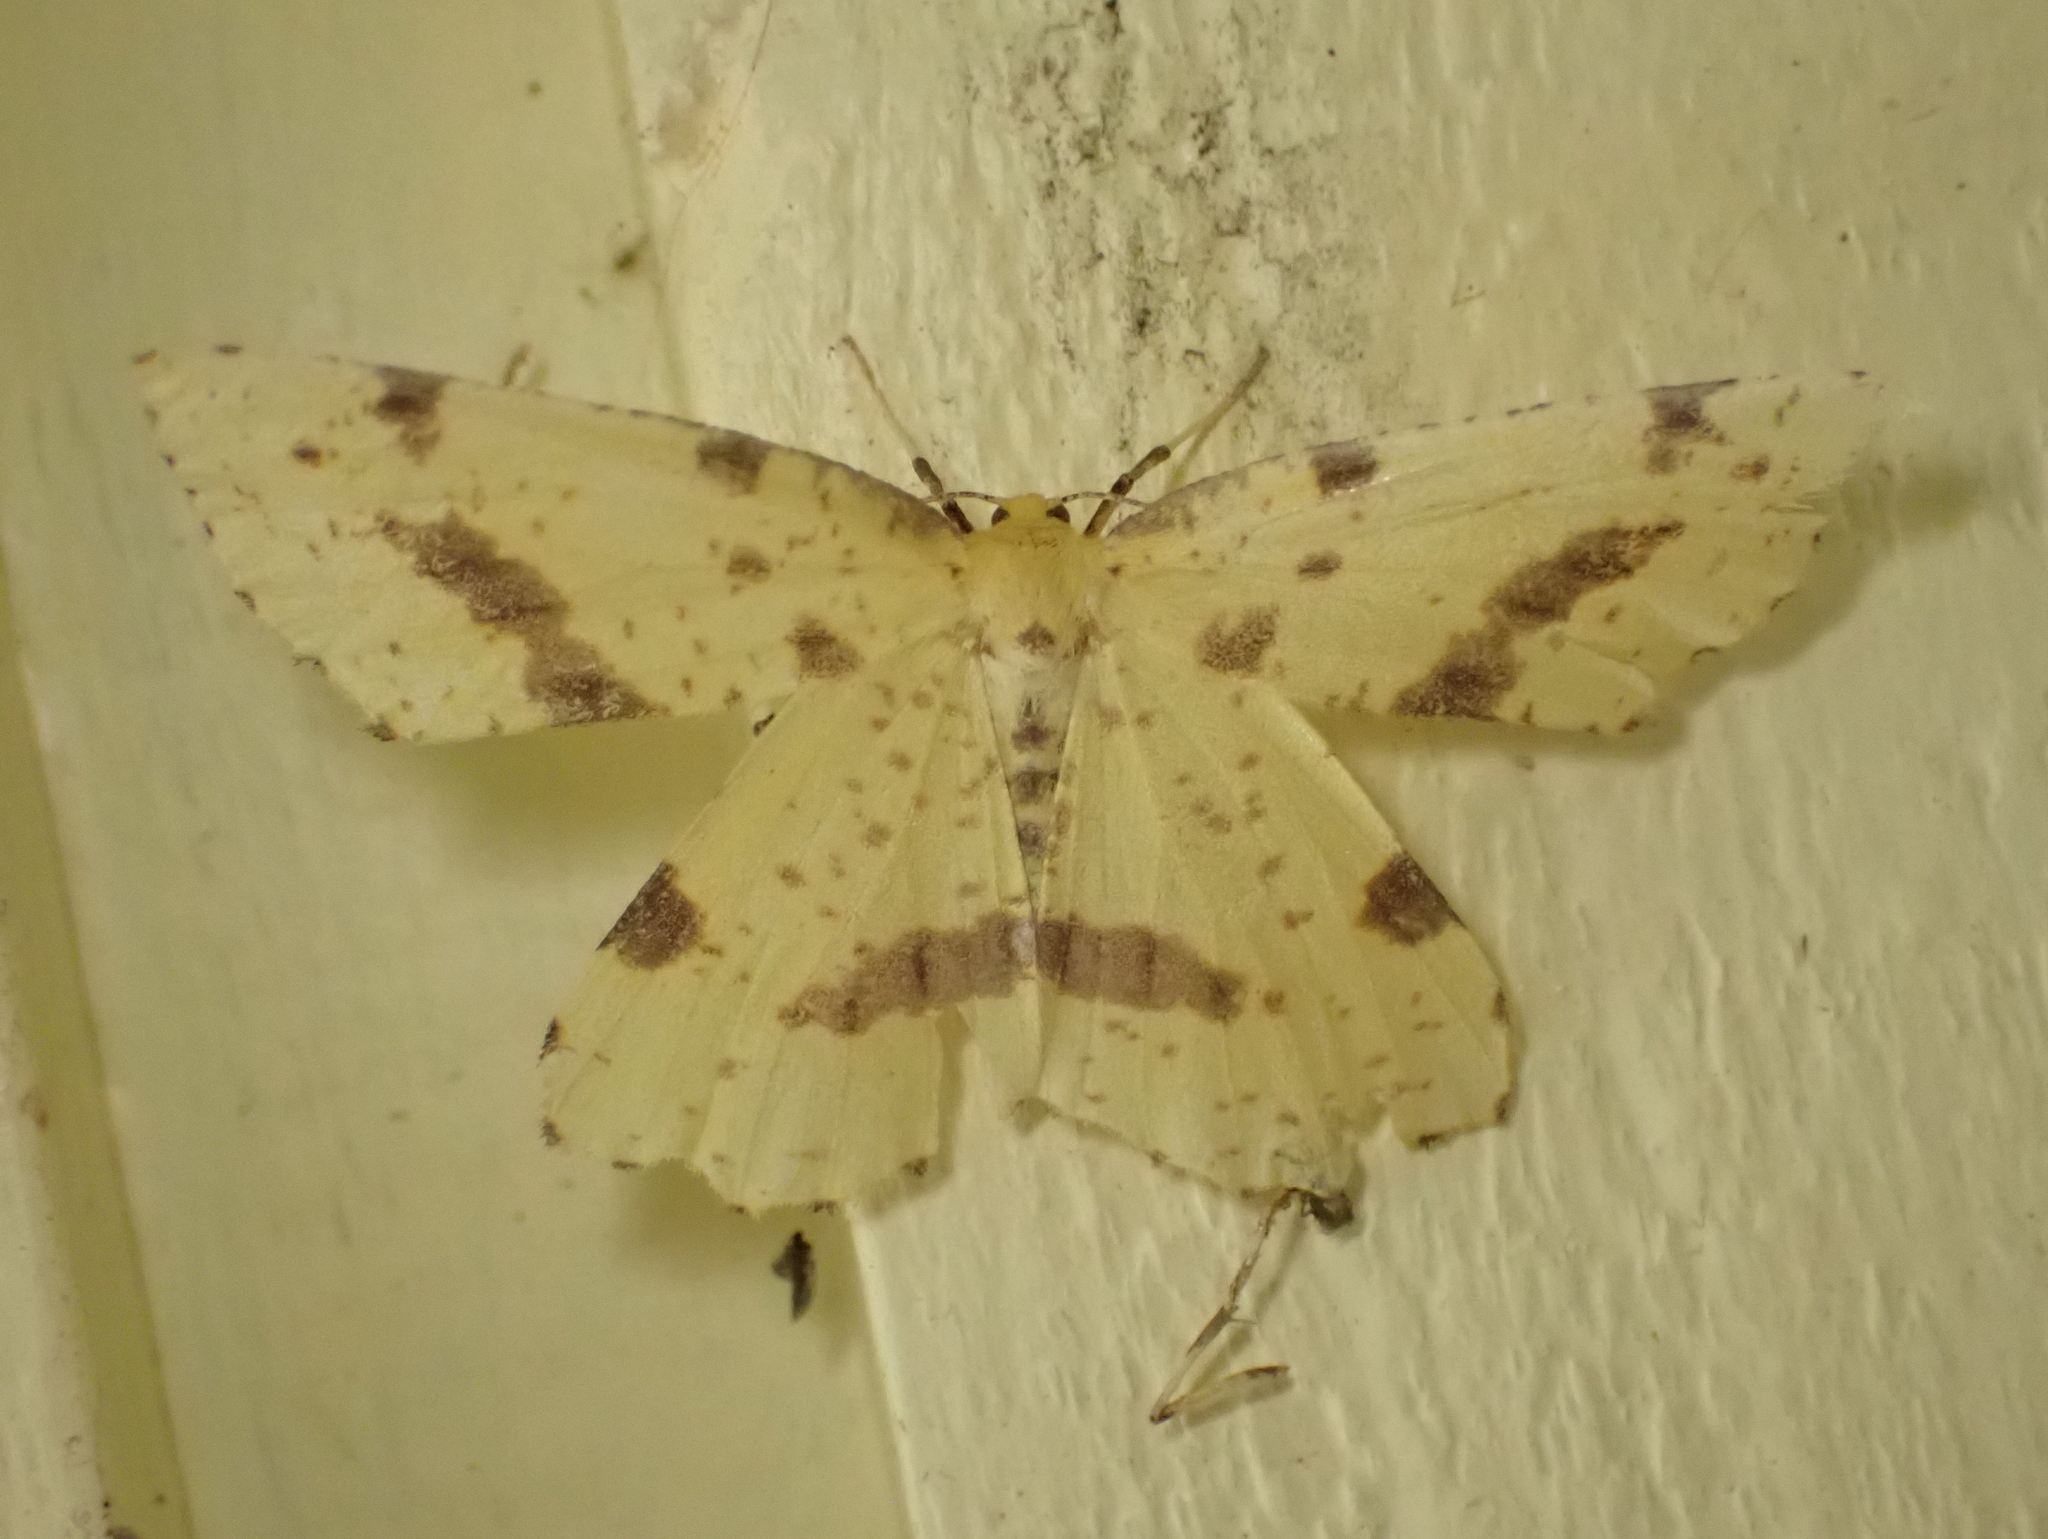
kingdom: Animalia
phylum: Arthropoda
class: Insecta
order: Lepidoptera
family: Geometridae
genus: Xanthotype
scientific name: Xanthotype
